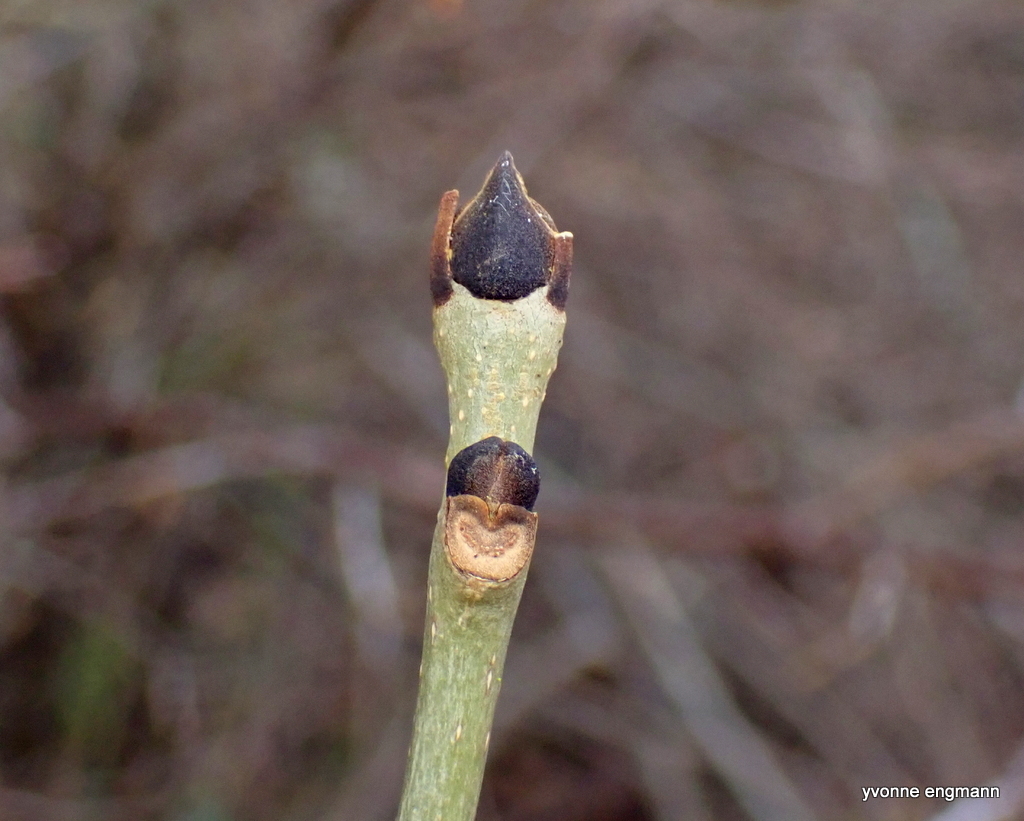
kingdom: Plantae
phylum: Tracheophyta
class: Magnoliopsida
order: Lamiales
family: Oleaceae
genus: Fraxinus
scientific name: Fraxinus excelsior
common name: European ash
